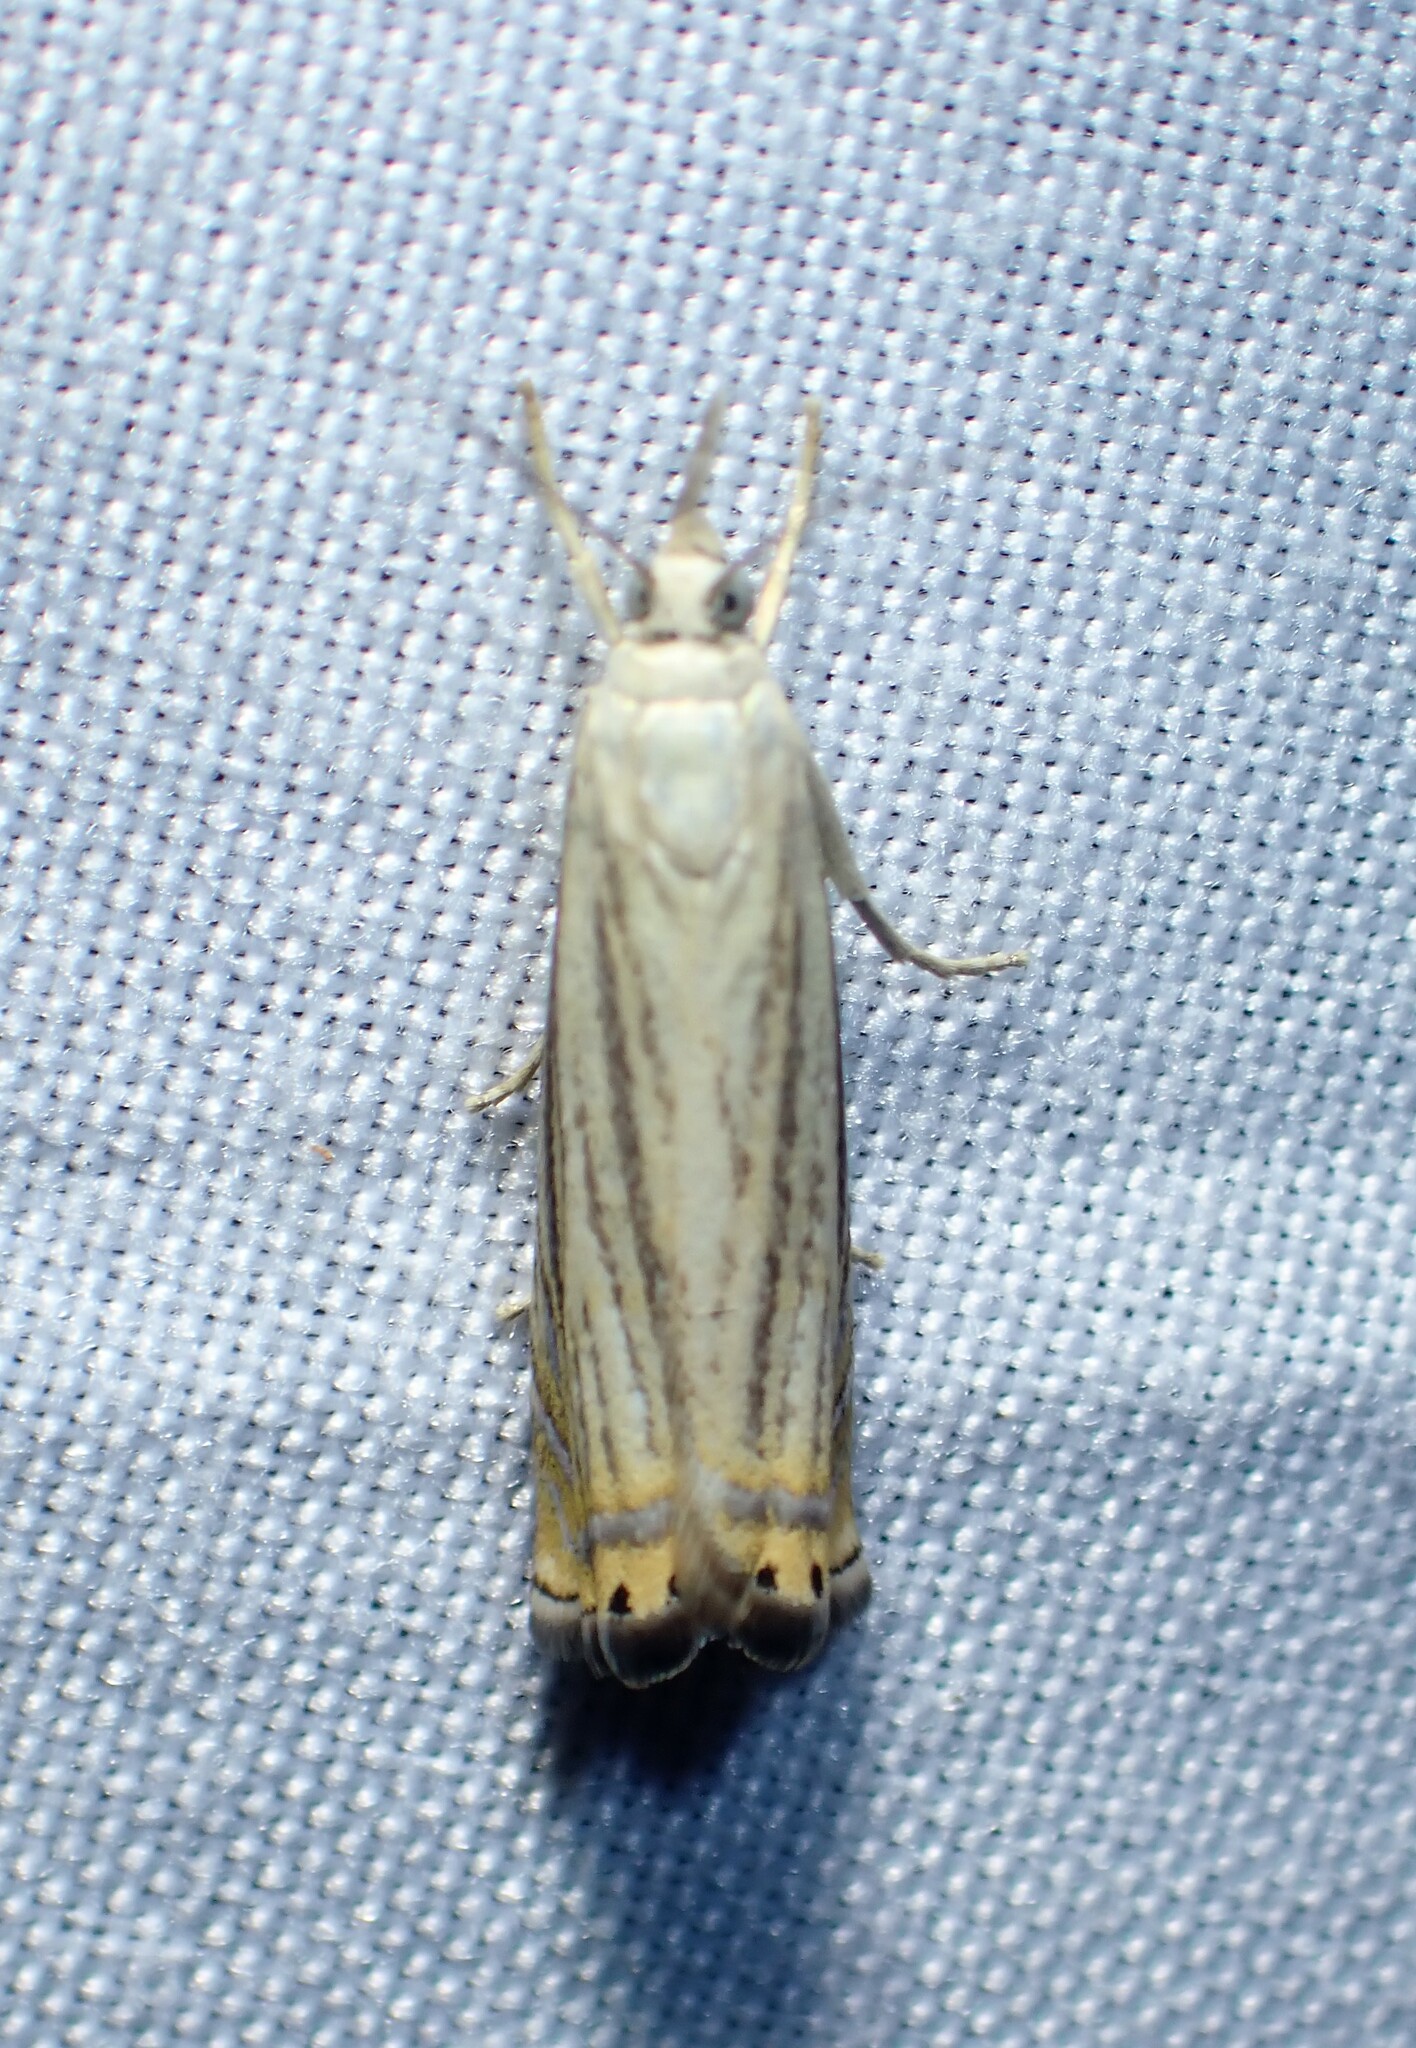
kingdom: Animalia
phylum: Arthropoda
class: Insecta
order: Lepidoptera
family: Crambidae
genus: Chrysoteuchia
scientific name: Chrysoteuchia topiarius
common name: Topiary grass-veneer
